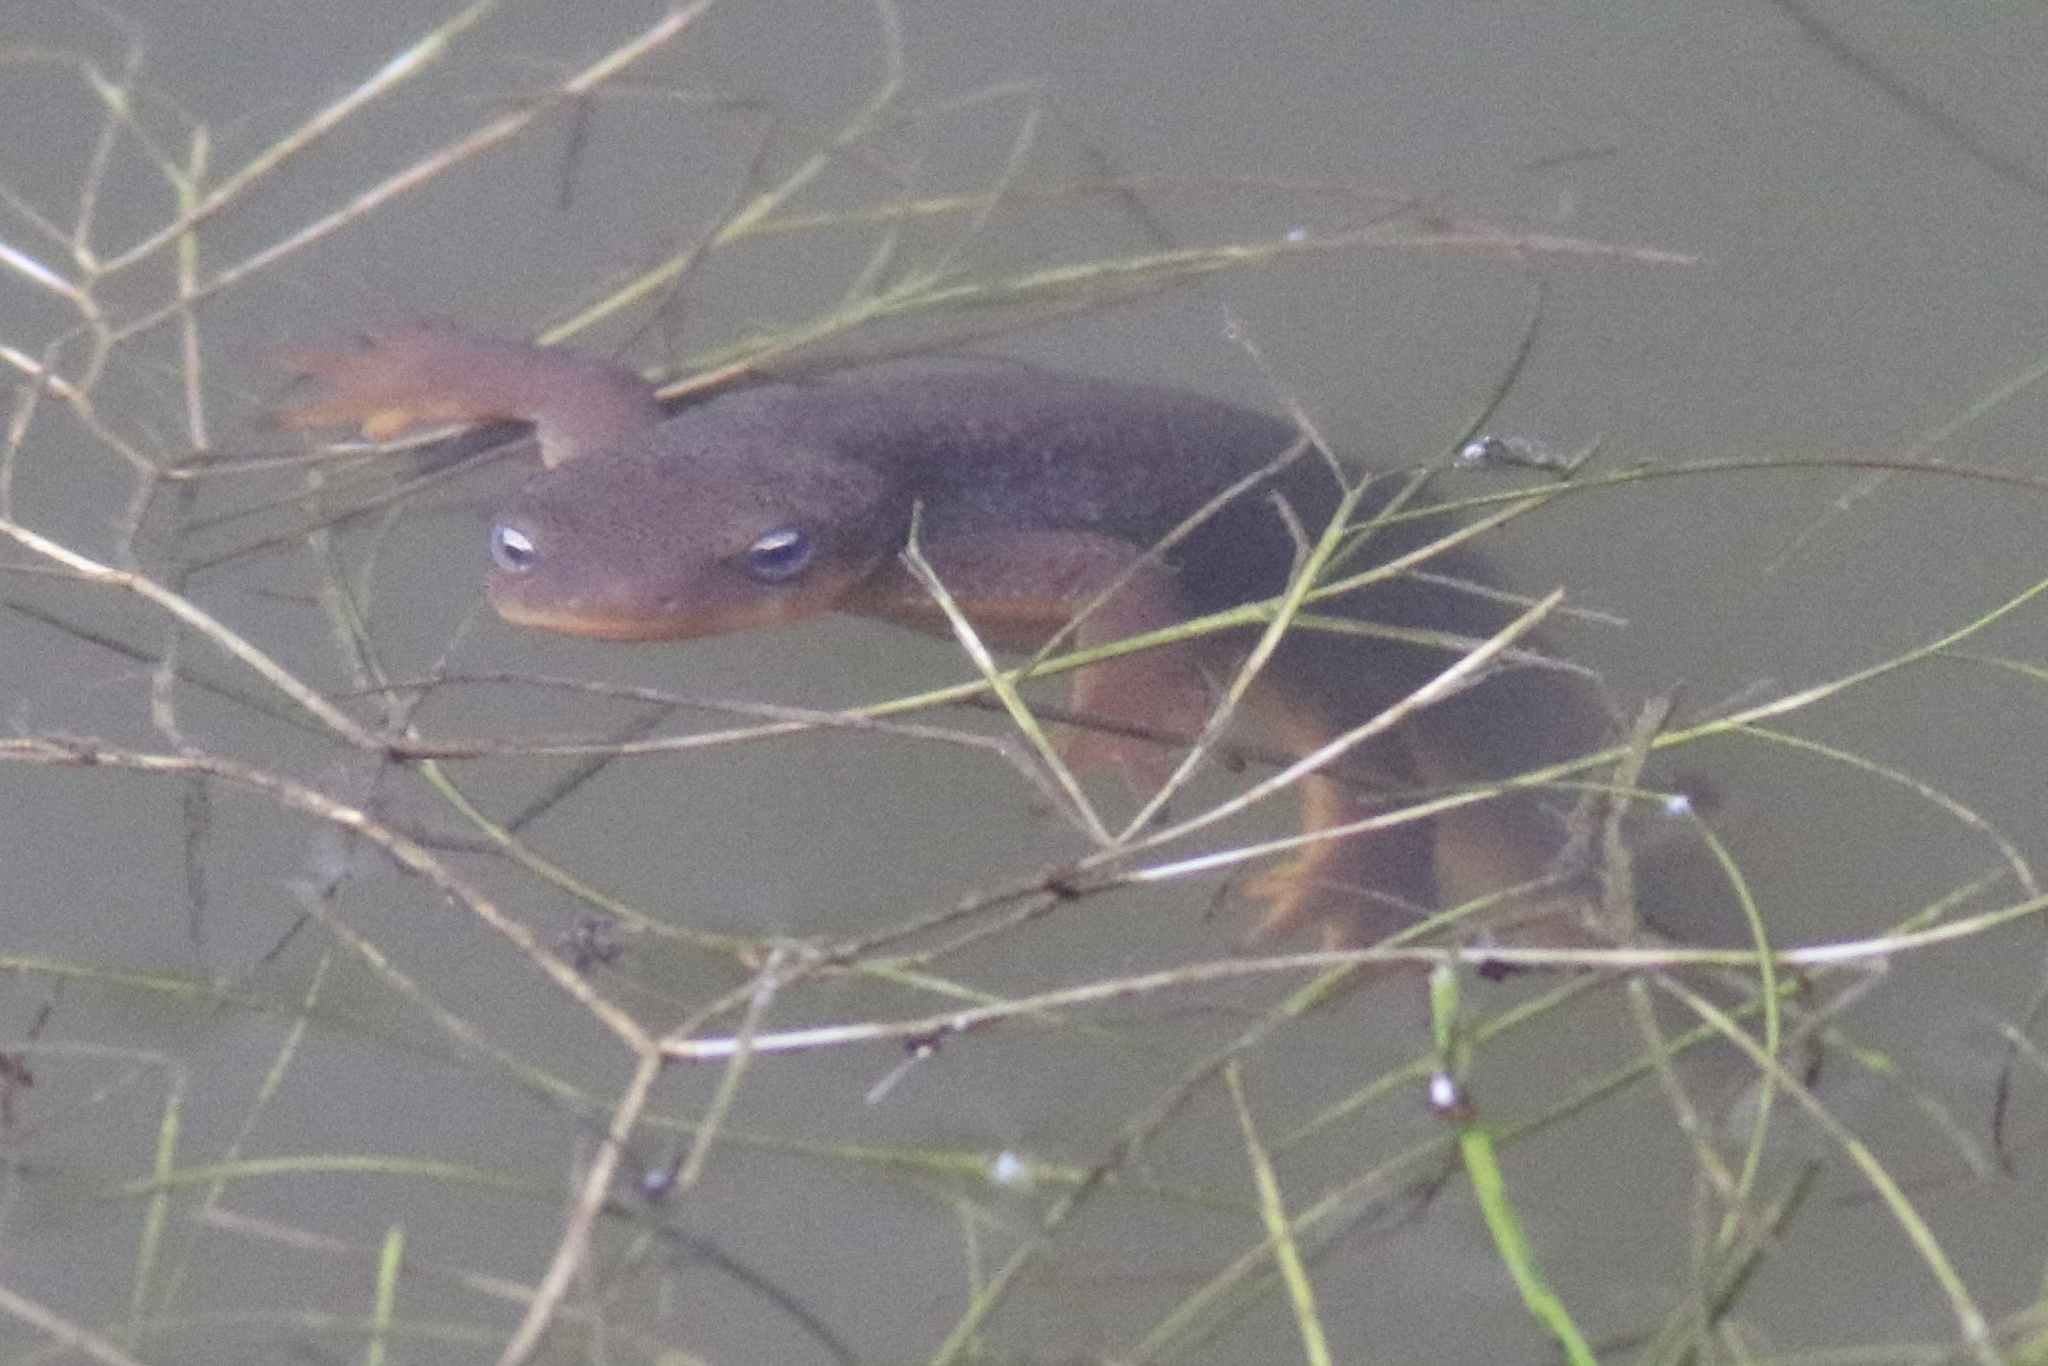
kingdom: Animalia
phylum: Chordata
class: Amphibia
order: Caudata
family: Salamandridae
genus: Taricha
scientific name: Taricha granulosa
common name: Roughskin newt
